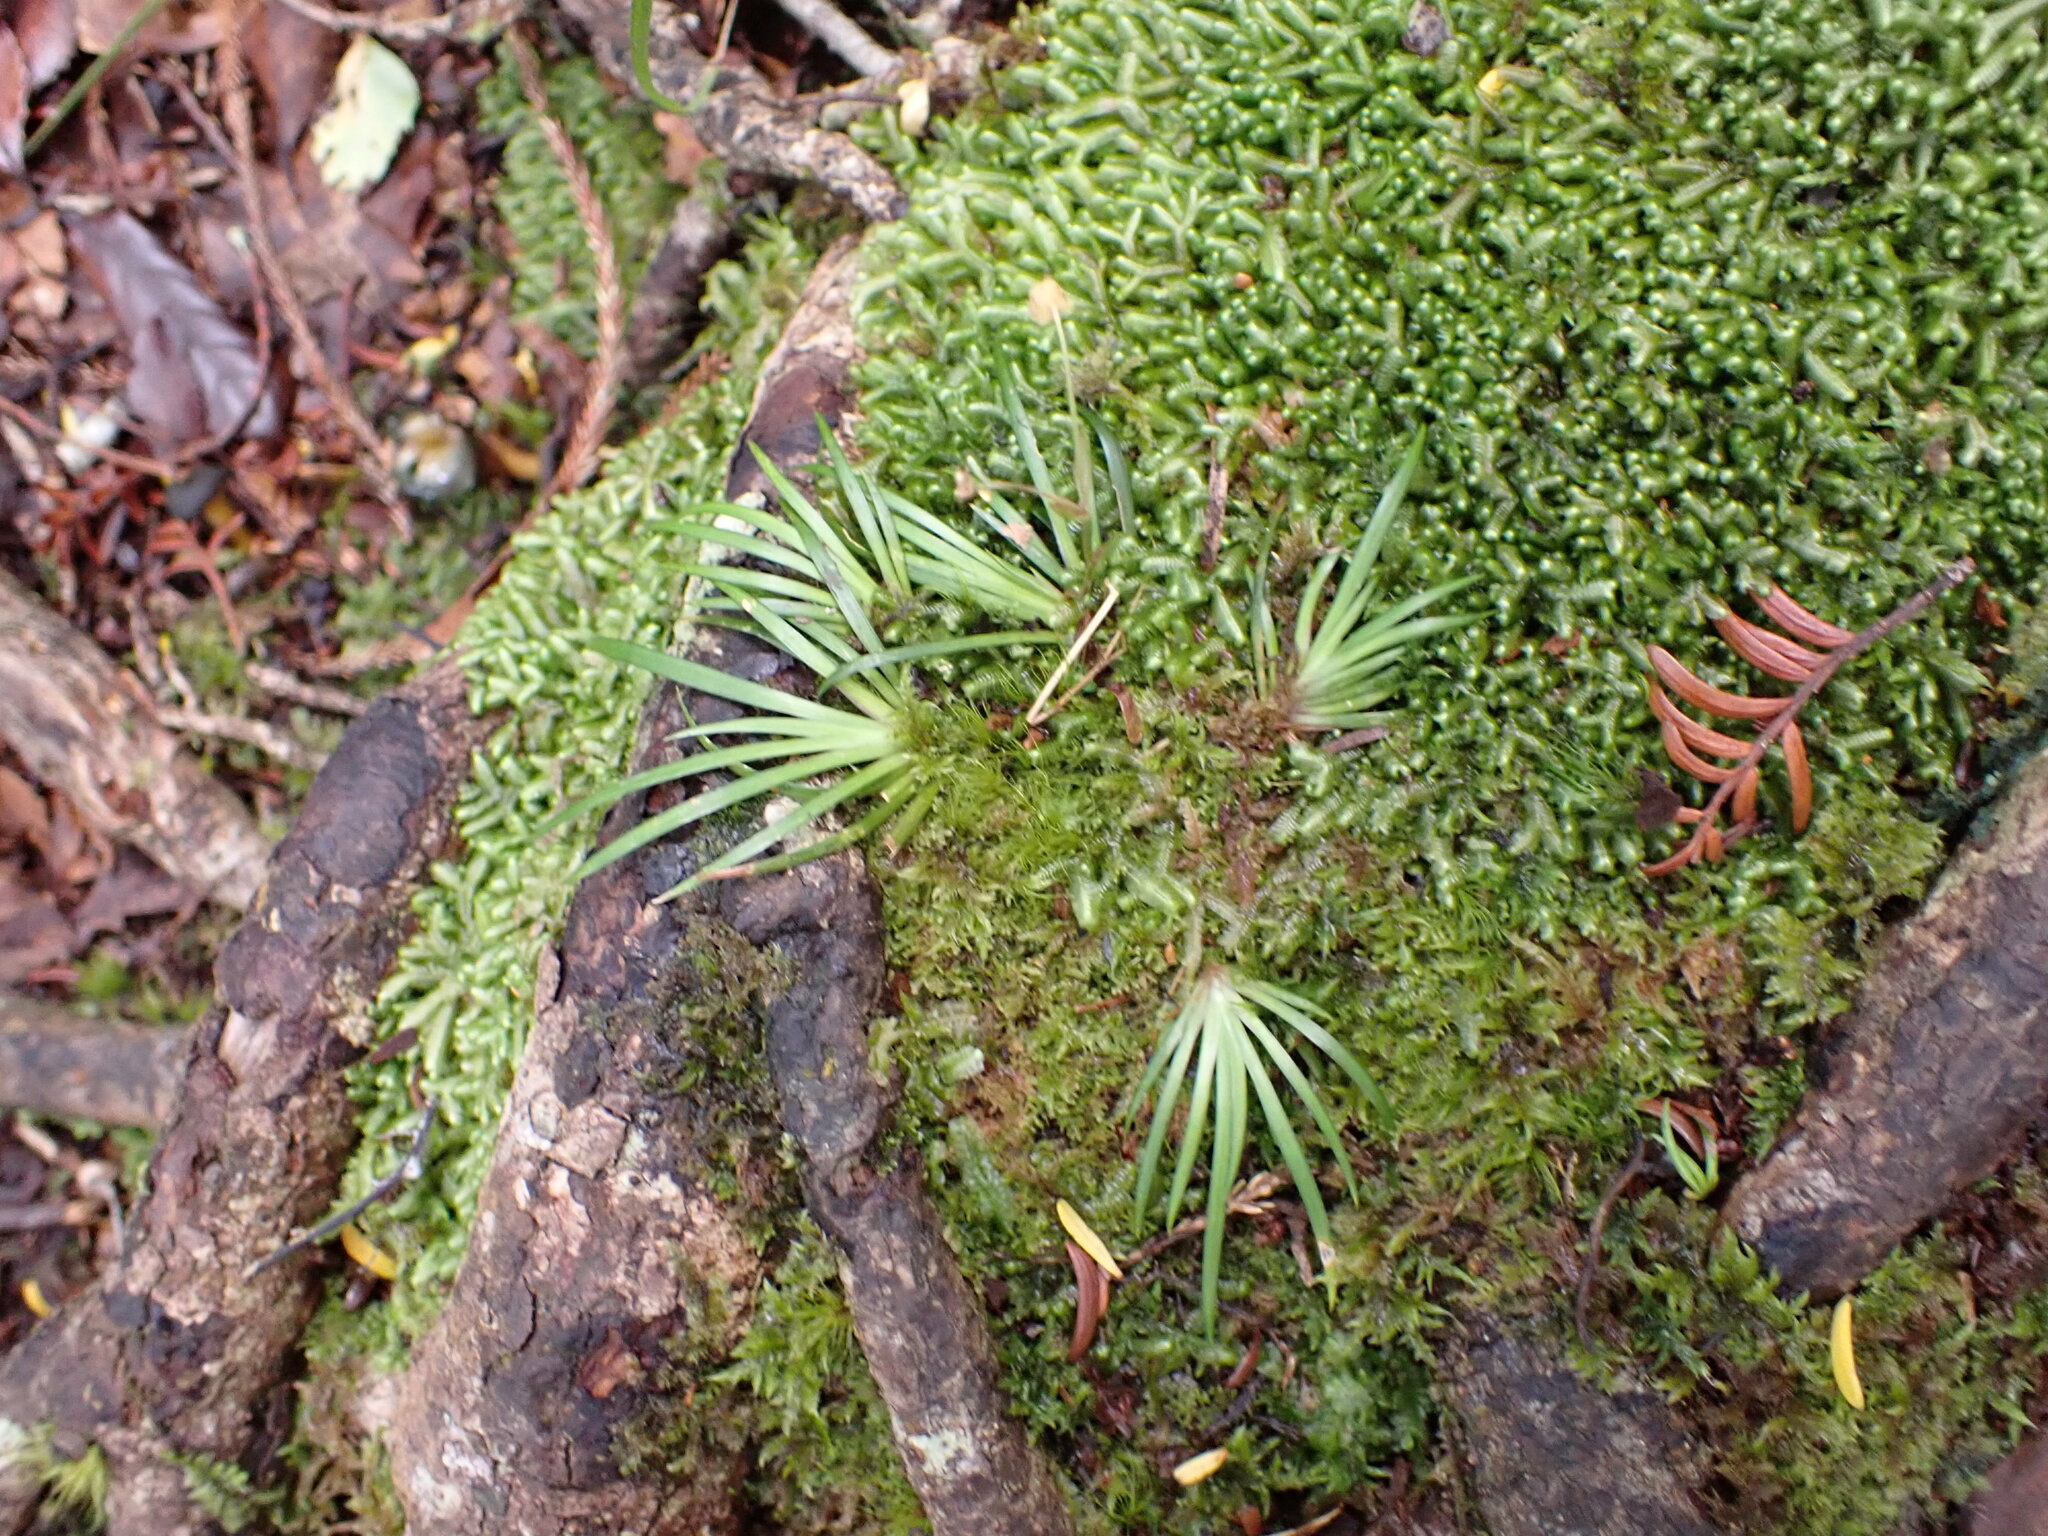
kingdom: Plantae
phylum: Tracheophyta
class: Liliopsida
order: Asparagales
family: Iridaceae
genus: Libertia
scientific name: Libertia micrantha
